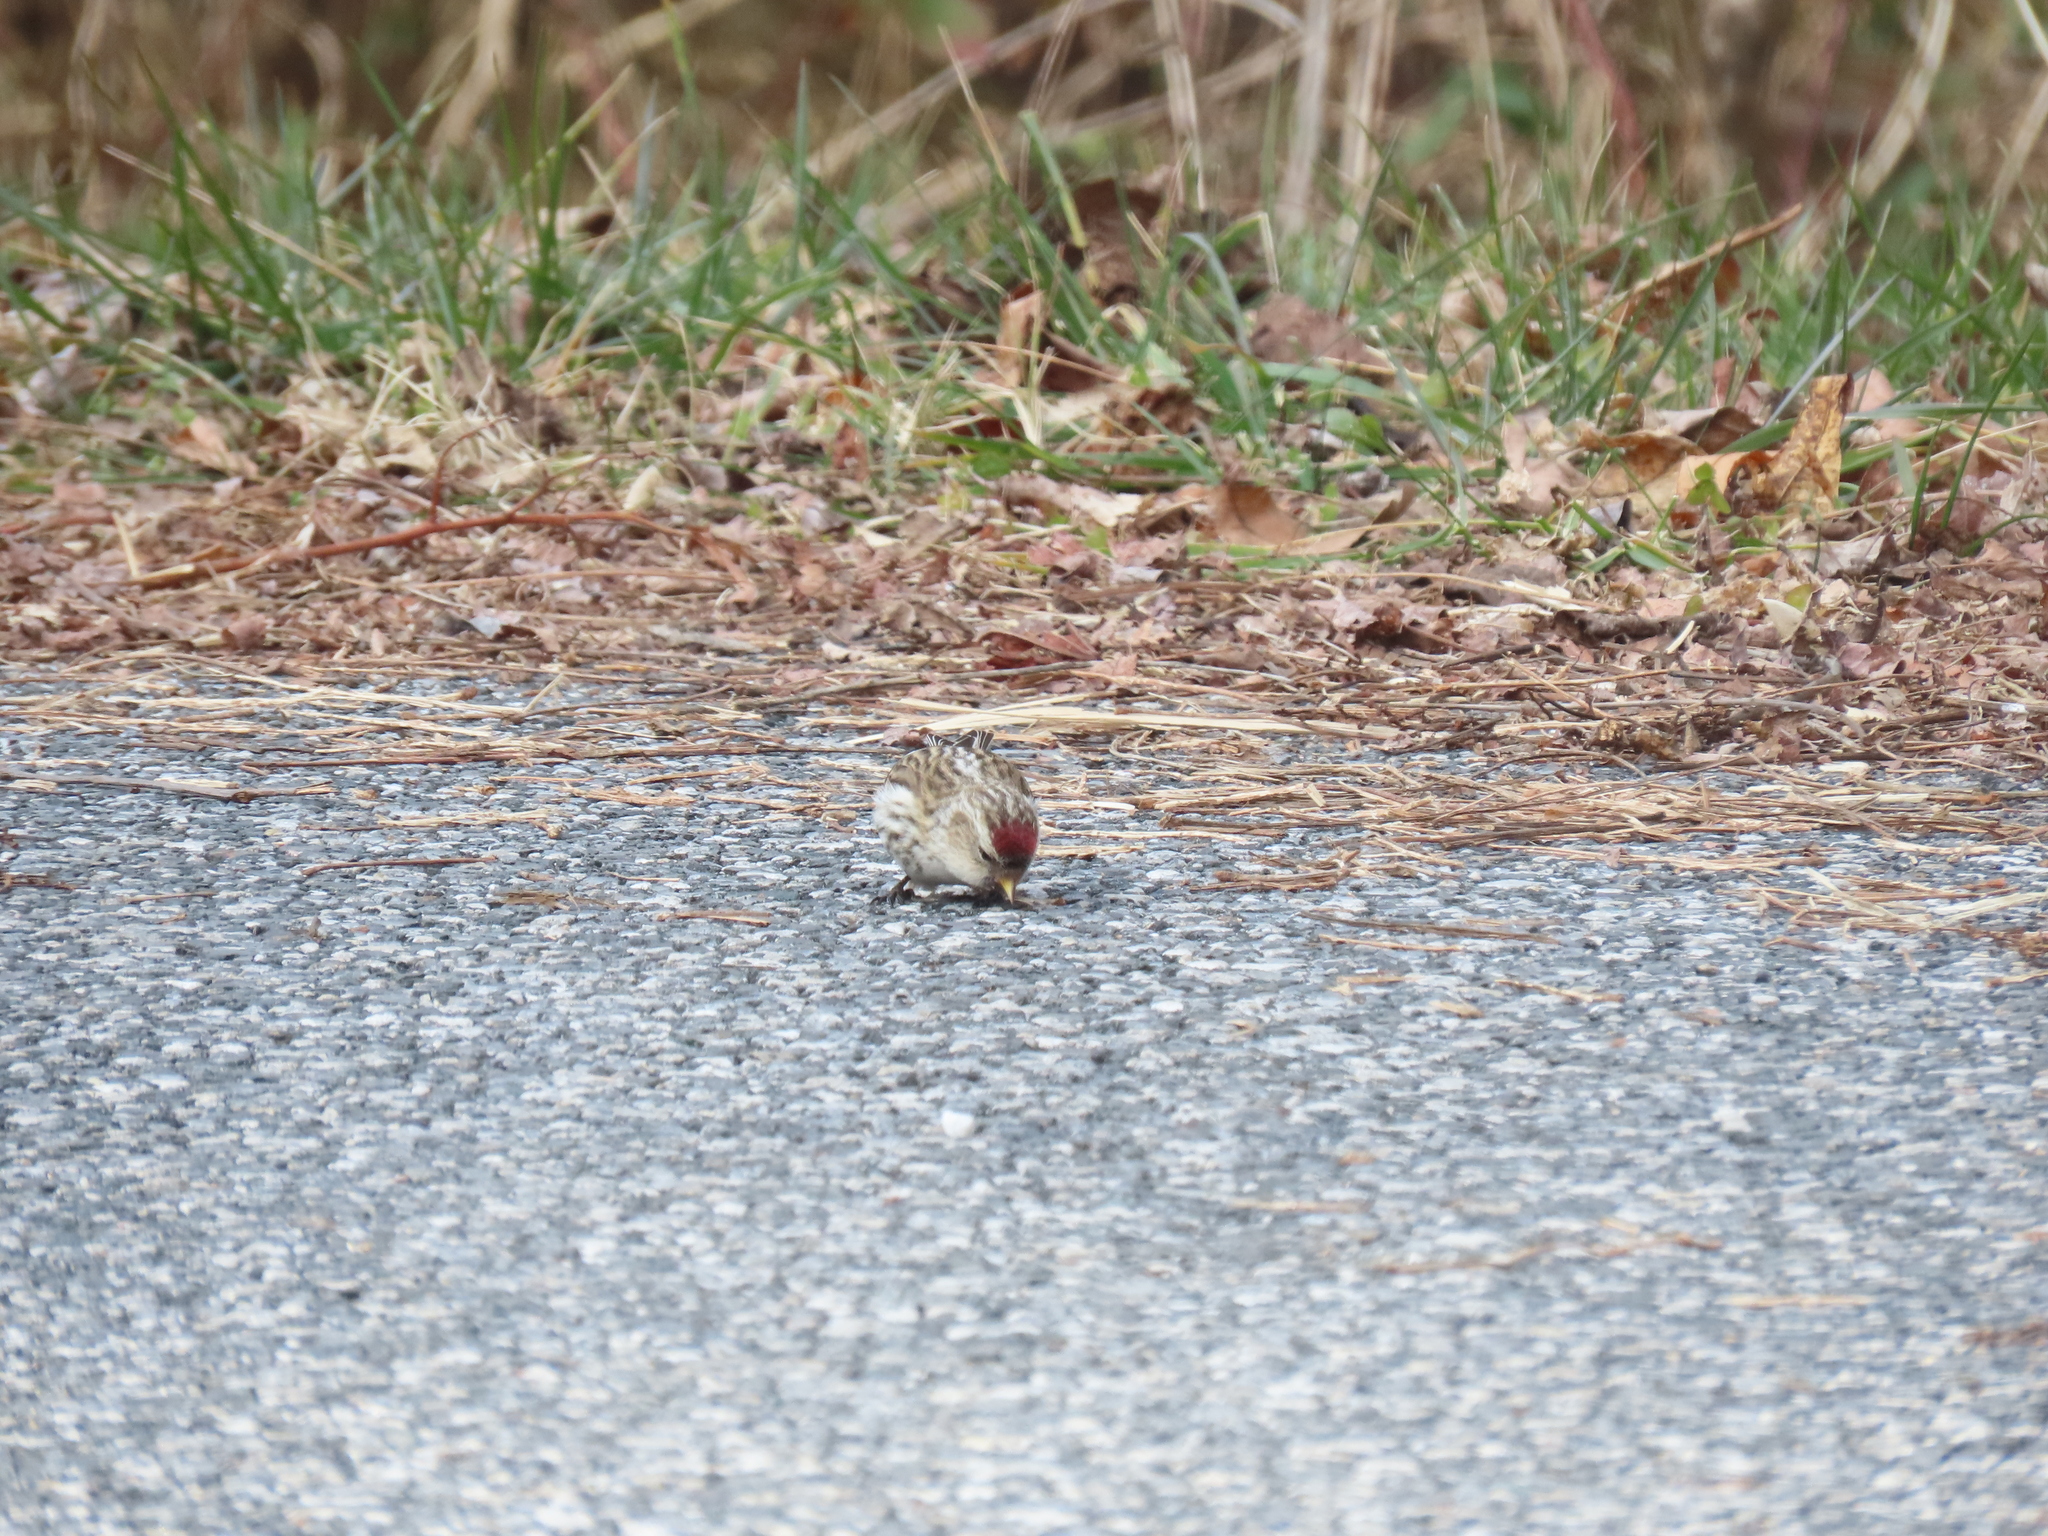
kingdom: Animalia
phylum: Chordata
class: Aves
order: Passeriformes
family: Fringillidae
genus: Acanthis
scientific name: Acanthis flammea
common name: Common redpoll
